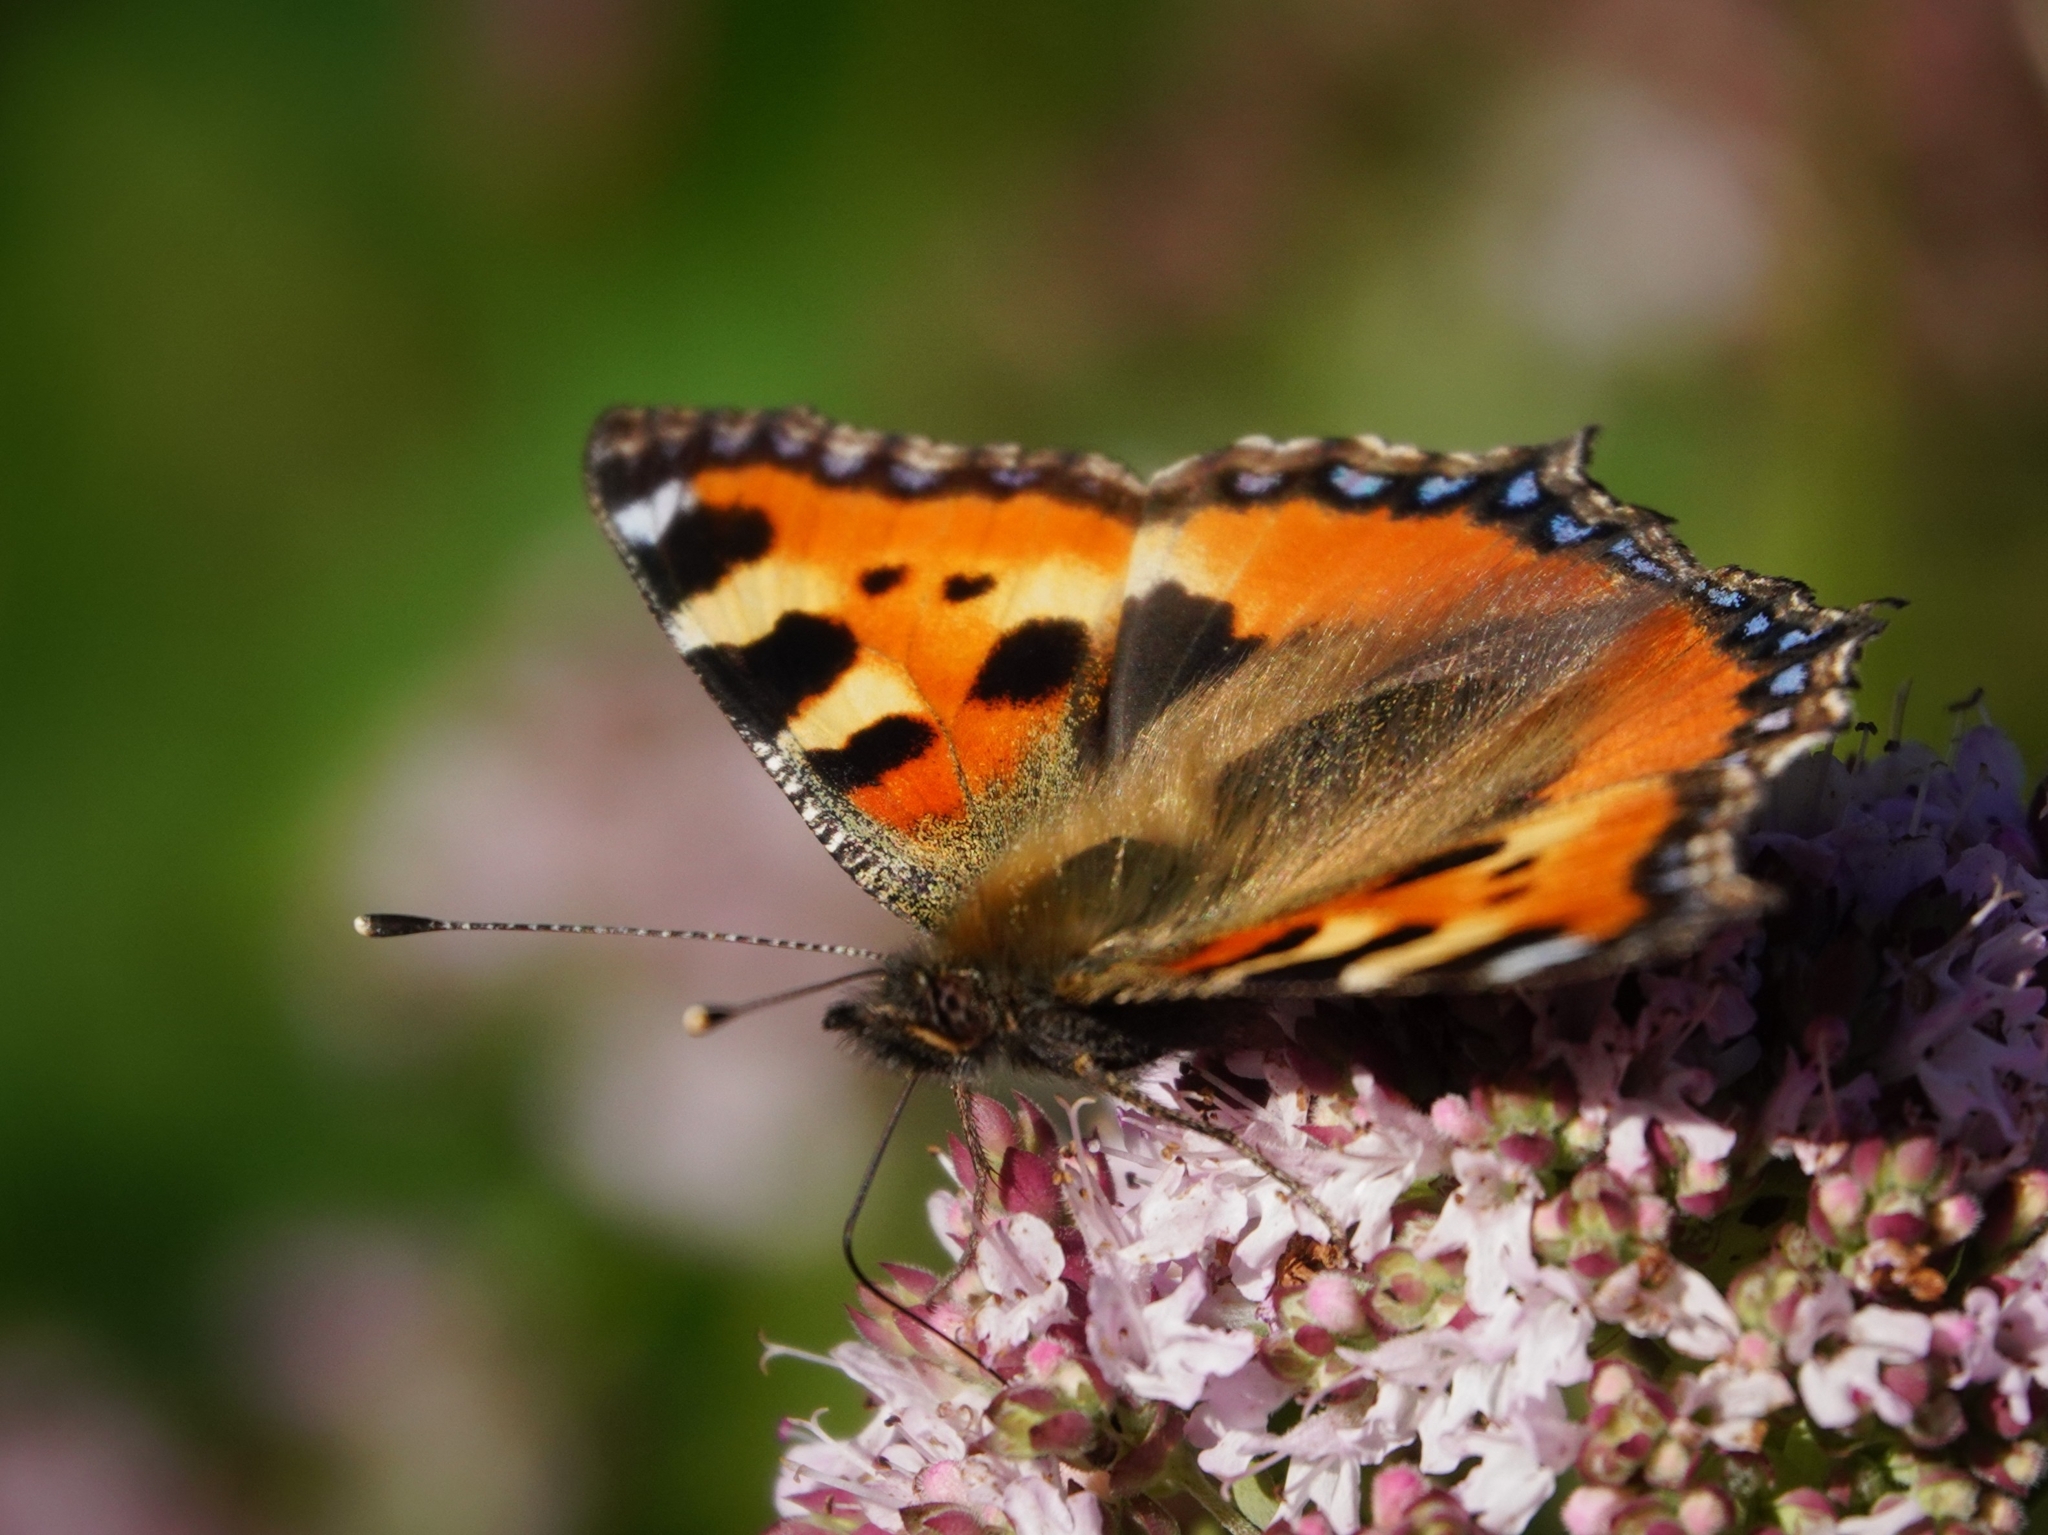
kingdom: Animalia
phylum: Arthropoda
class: Insecta
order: Lepidoptera
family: Nymphalidae
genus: Aglais
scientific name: Aglais urticae
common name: Small tortoiseshell
